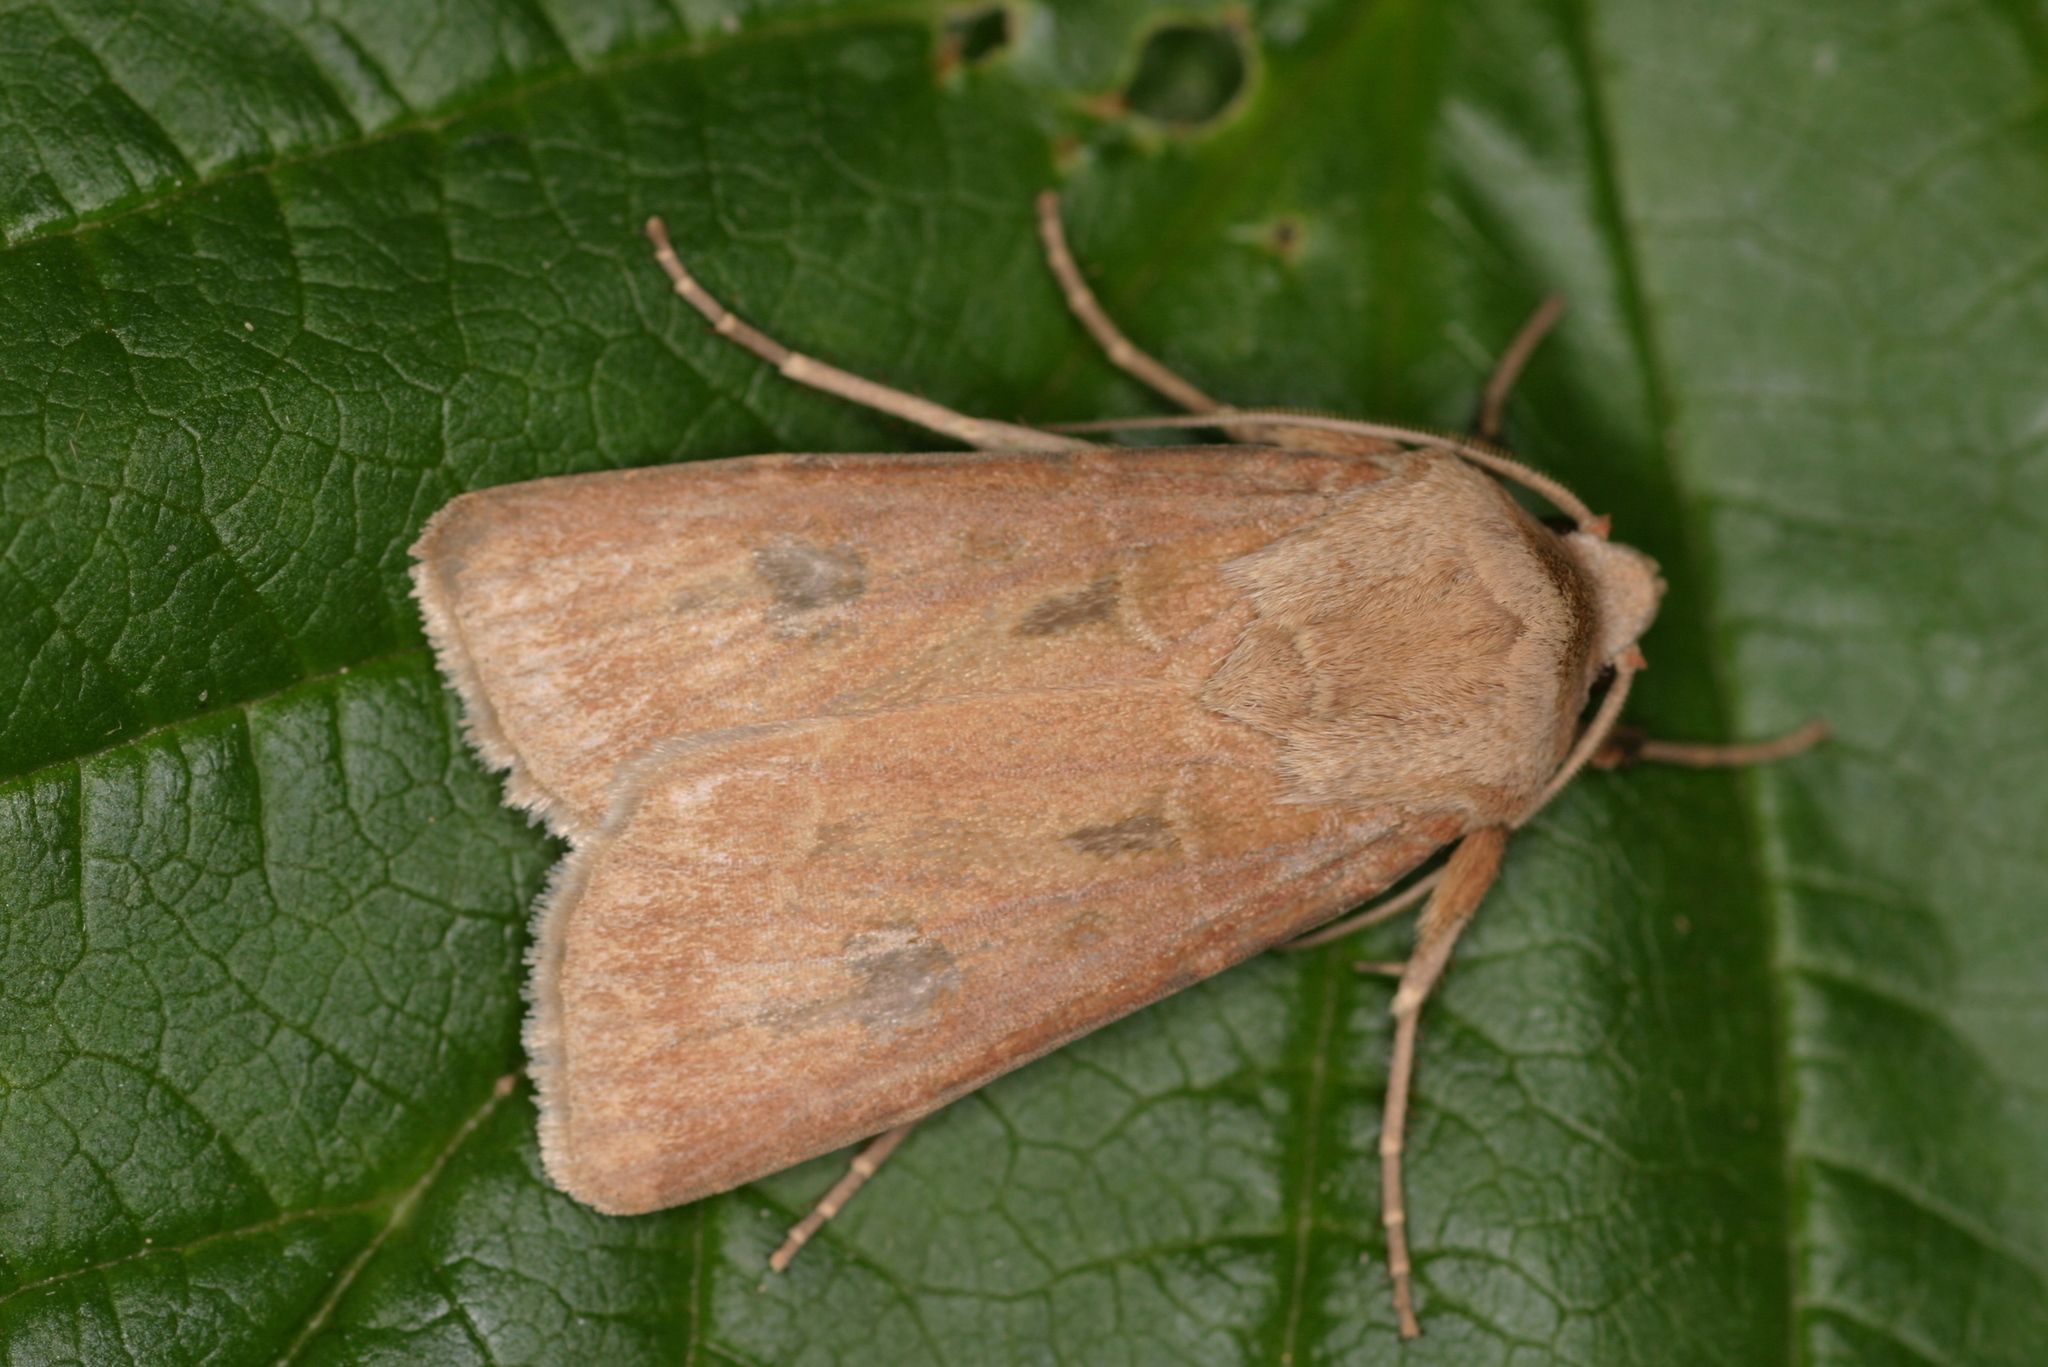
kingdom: Animalia
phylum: Arthropoda
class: Insecta
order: Lepidoptera
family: Noctuidae
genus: Agrotis
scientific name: Agrotis exclamationis
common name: Heart and dart
